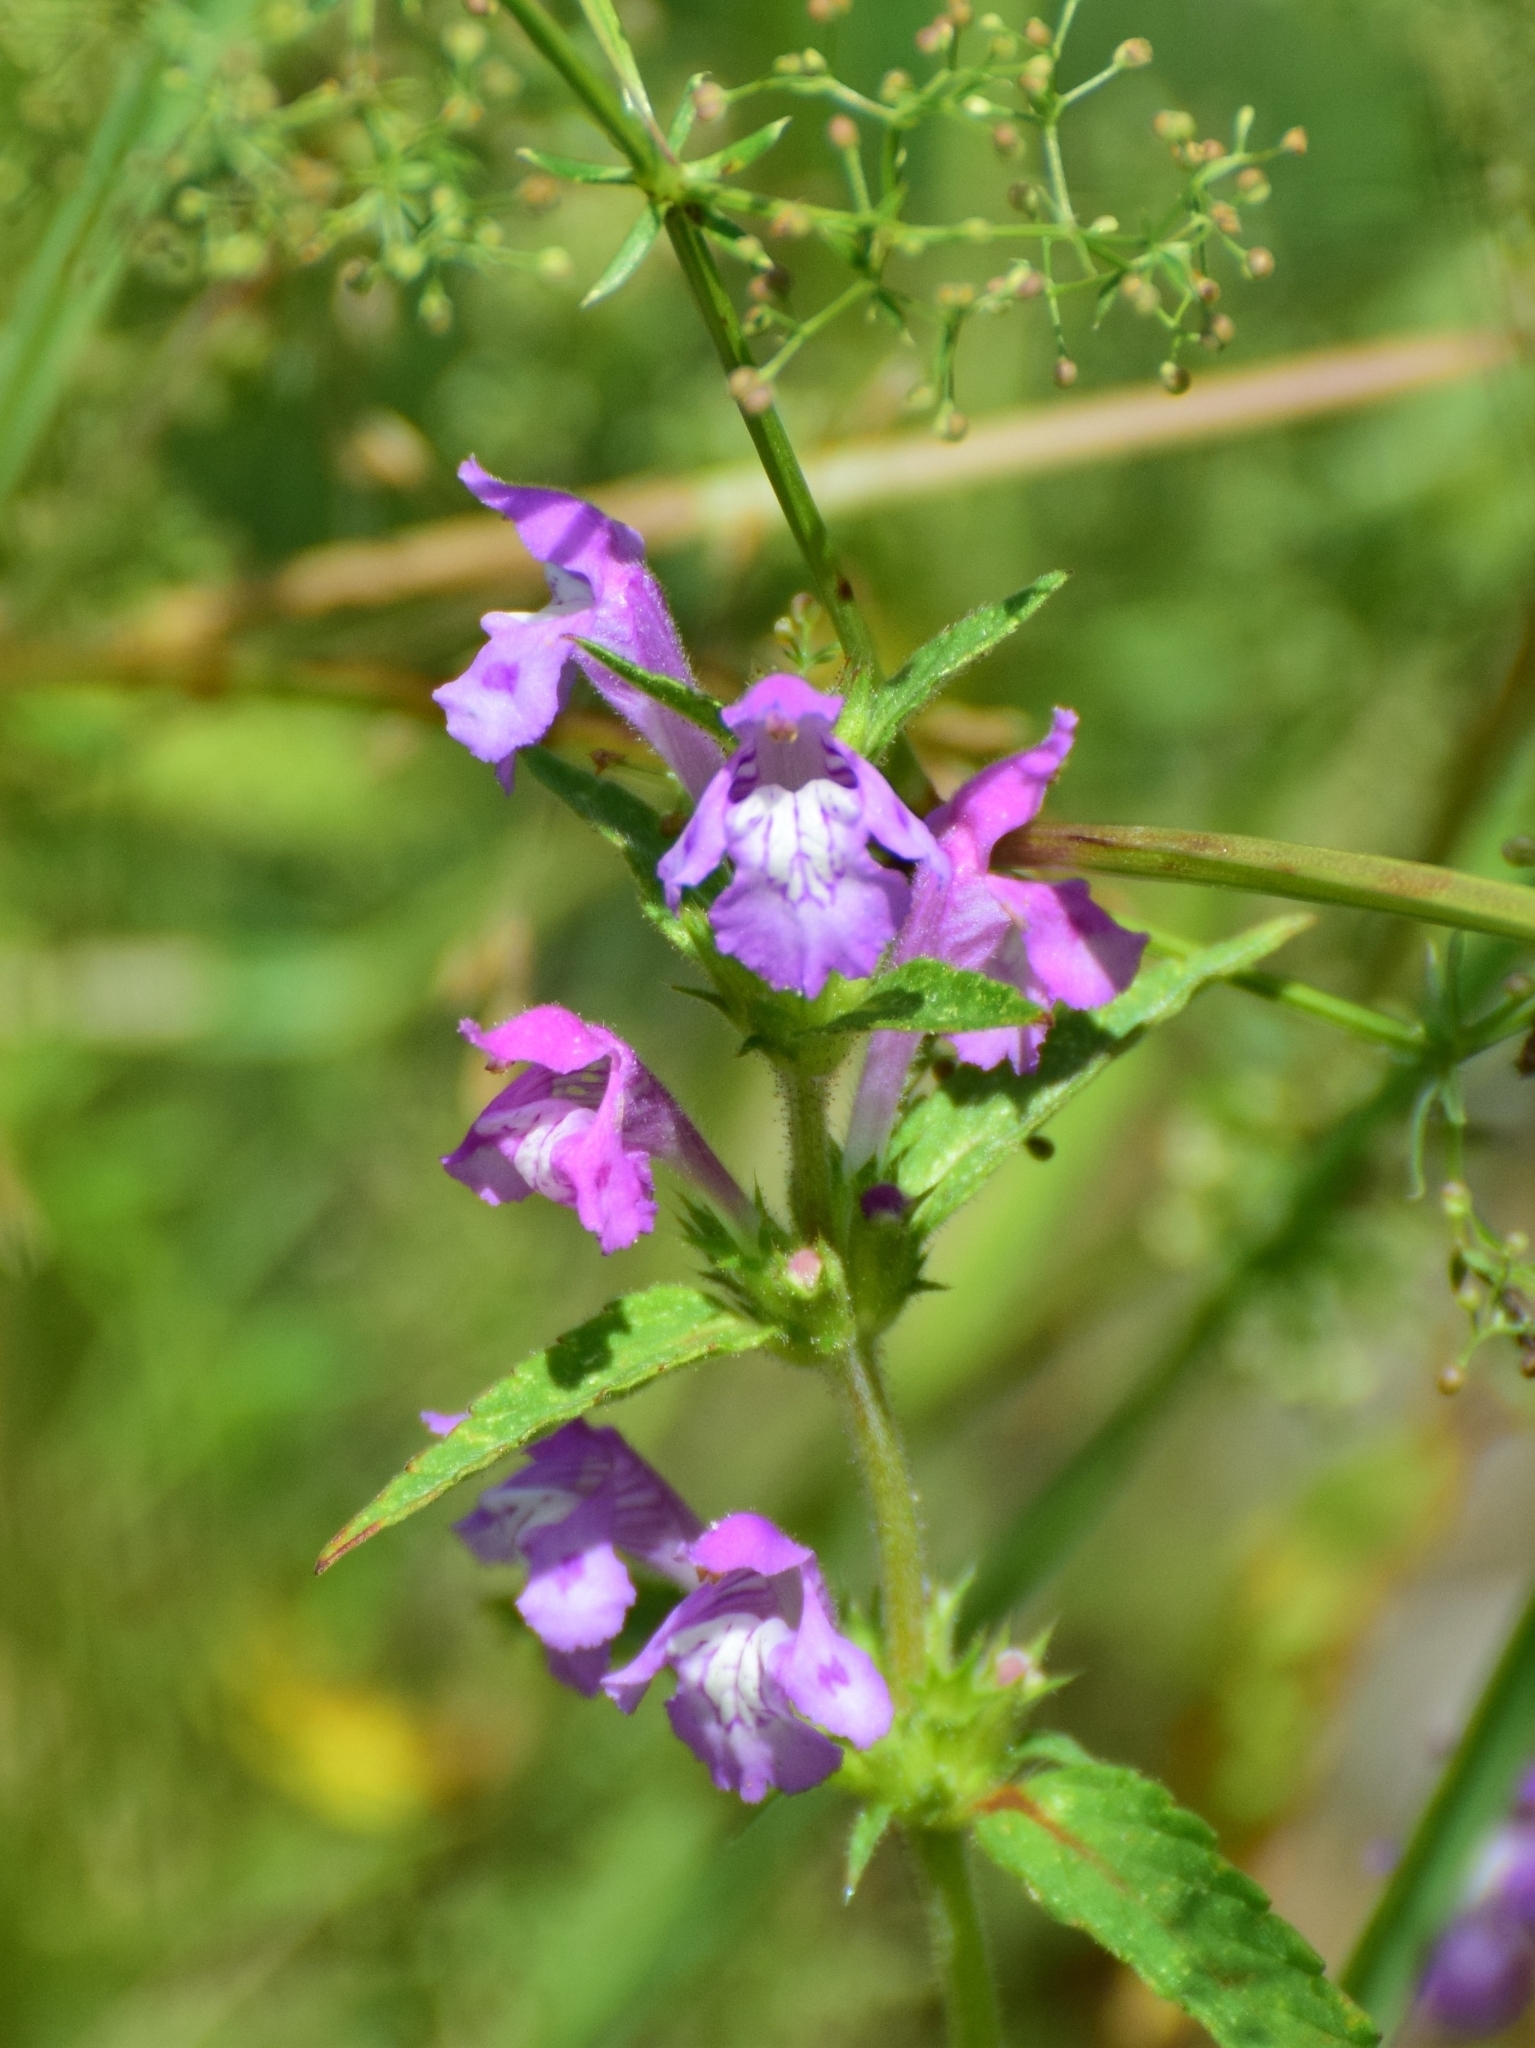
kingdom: Plantae
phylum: Tracheophyta
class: Magnoliopsida
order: Lamiales
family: Lamiaceae
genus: Galeopsis
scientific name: Galeopsis ladanum
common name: Broad-leaved hemp-nettle
